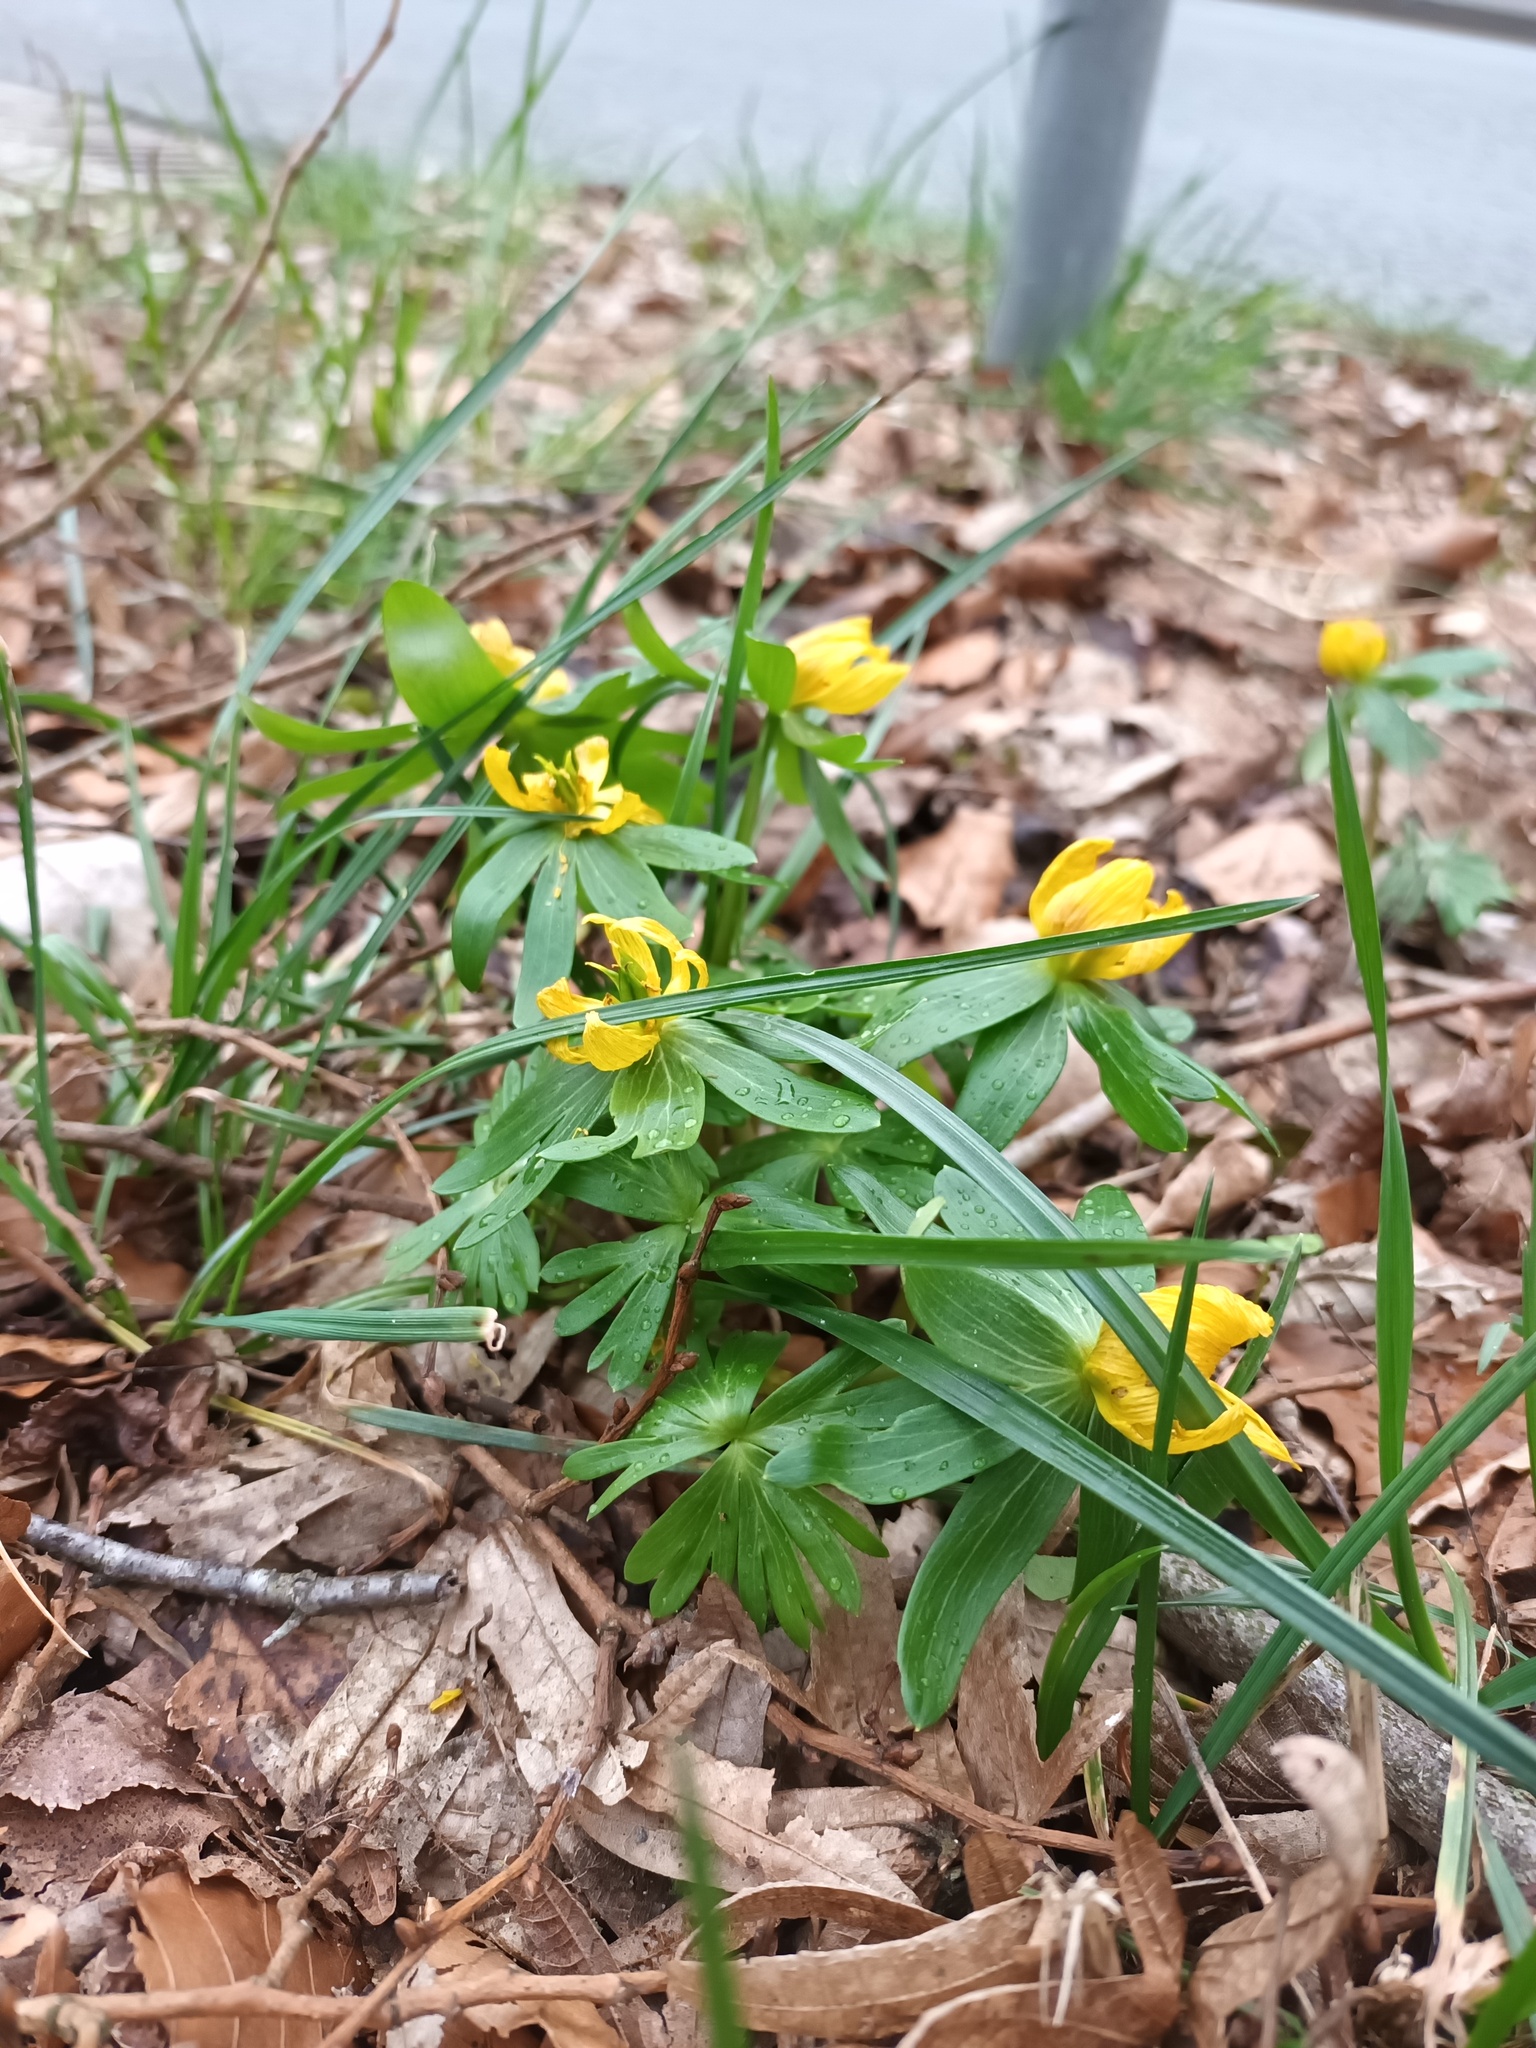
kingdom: Plantae
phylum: Tracheophyta
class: Magnoliopsida
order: Ranunculales
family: Ranunculaceae
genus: Eranthis
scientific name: Eranthis hyemalis
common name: Winter aconite
